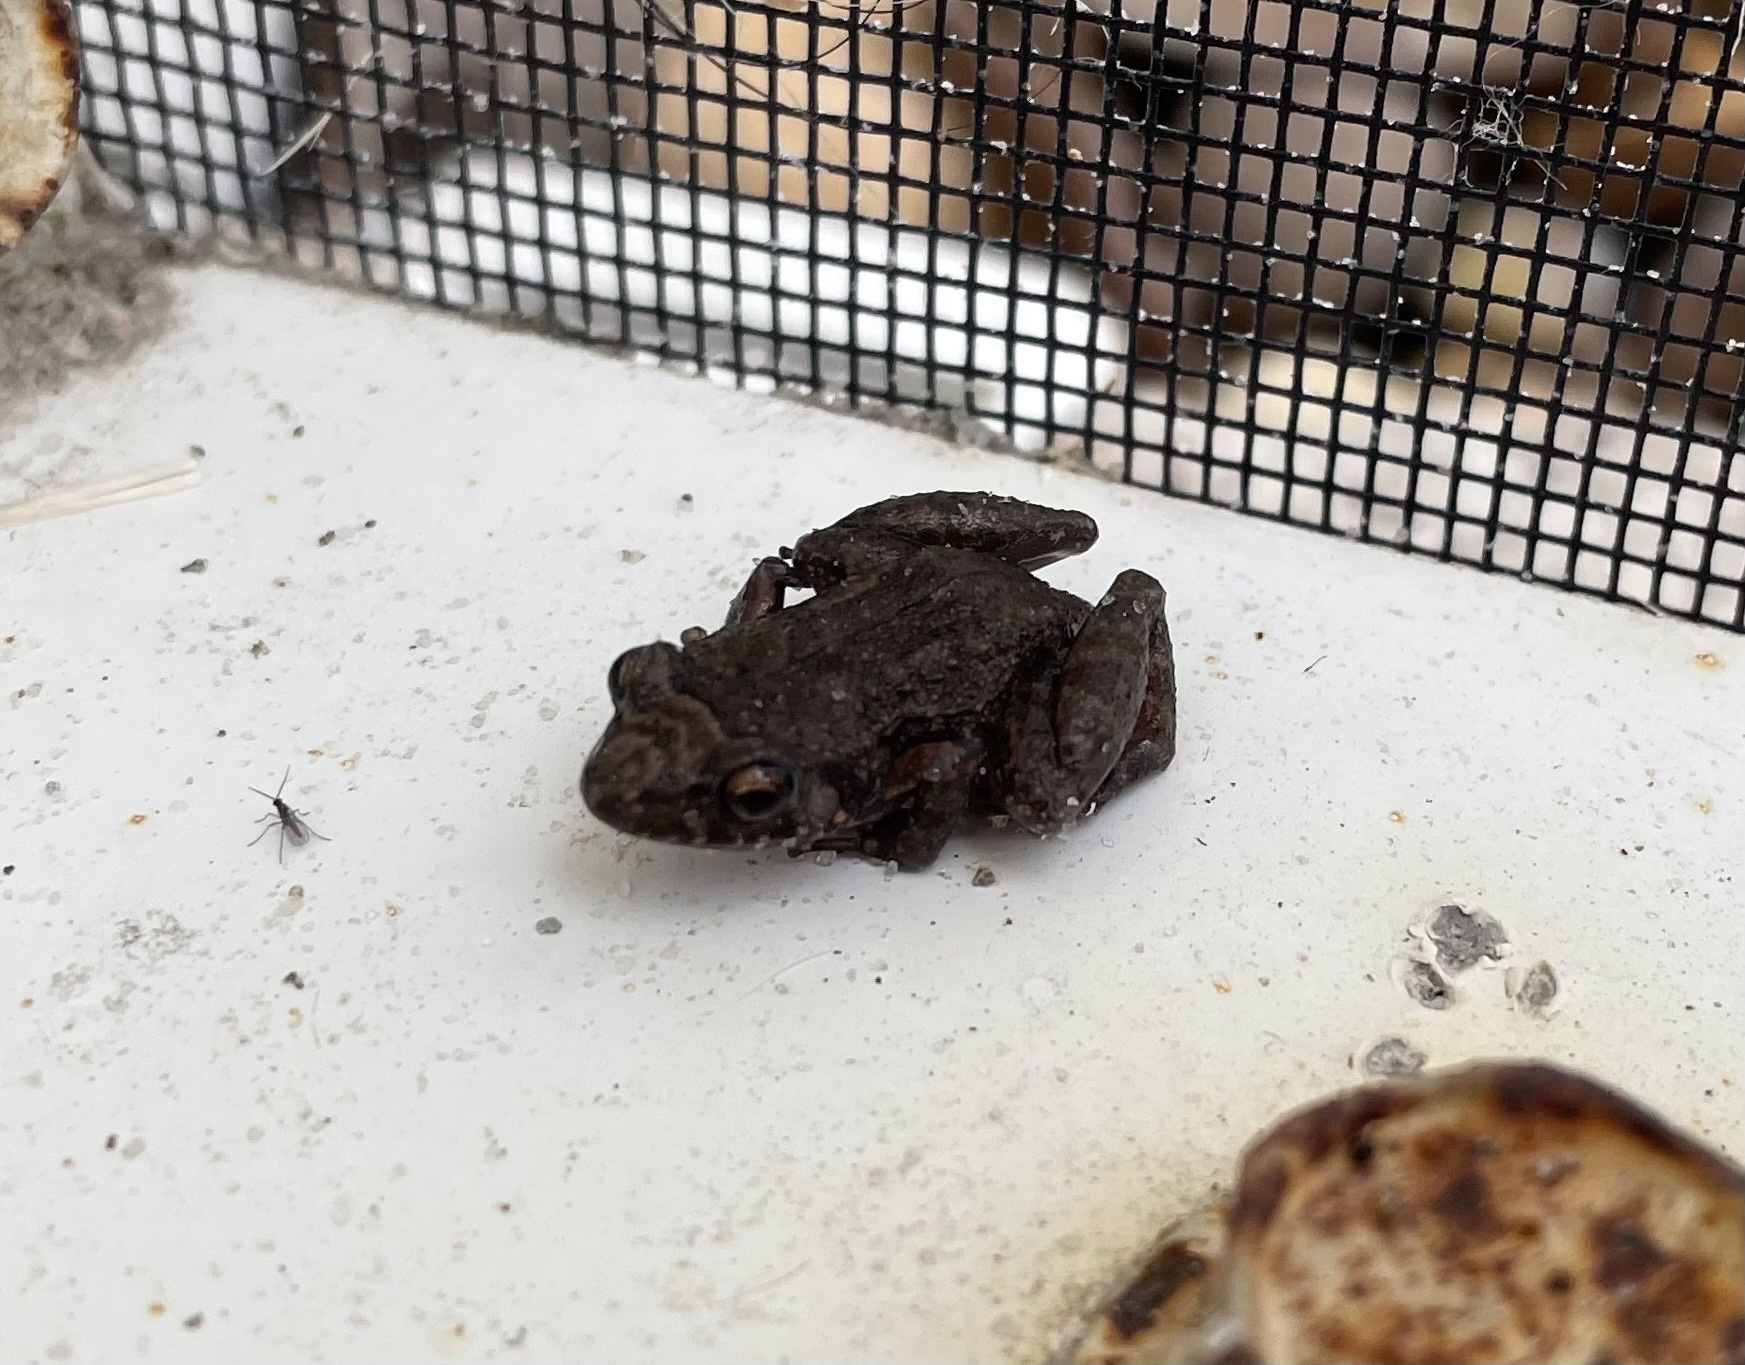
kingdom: Animalia
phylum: Chordata
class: Amphibia
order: Anura
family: Eleutherodactylidae
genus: Eleutherodactylus
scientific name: Eleutherodactylus planirostris
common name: Greenhouse frog
